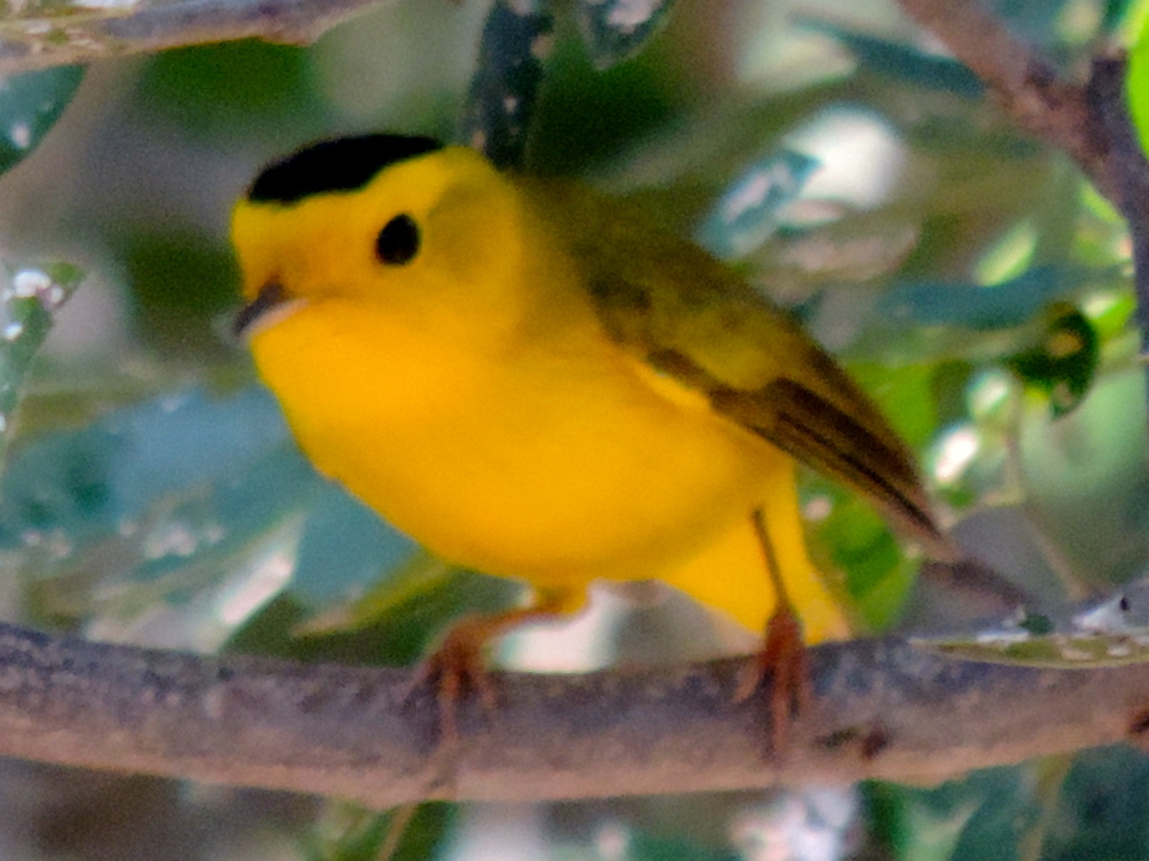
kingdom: Animalia
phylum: Chordata
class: Aves
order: Passeriformes
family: Parulidae
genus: Cardellina
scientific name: Cardellina pusilla
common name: Wilson's warbler
